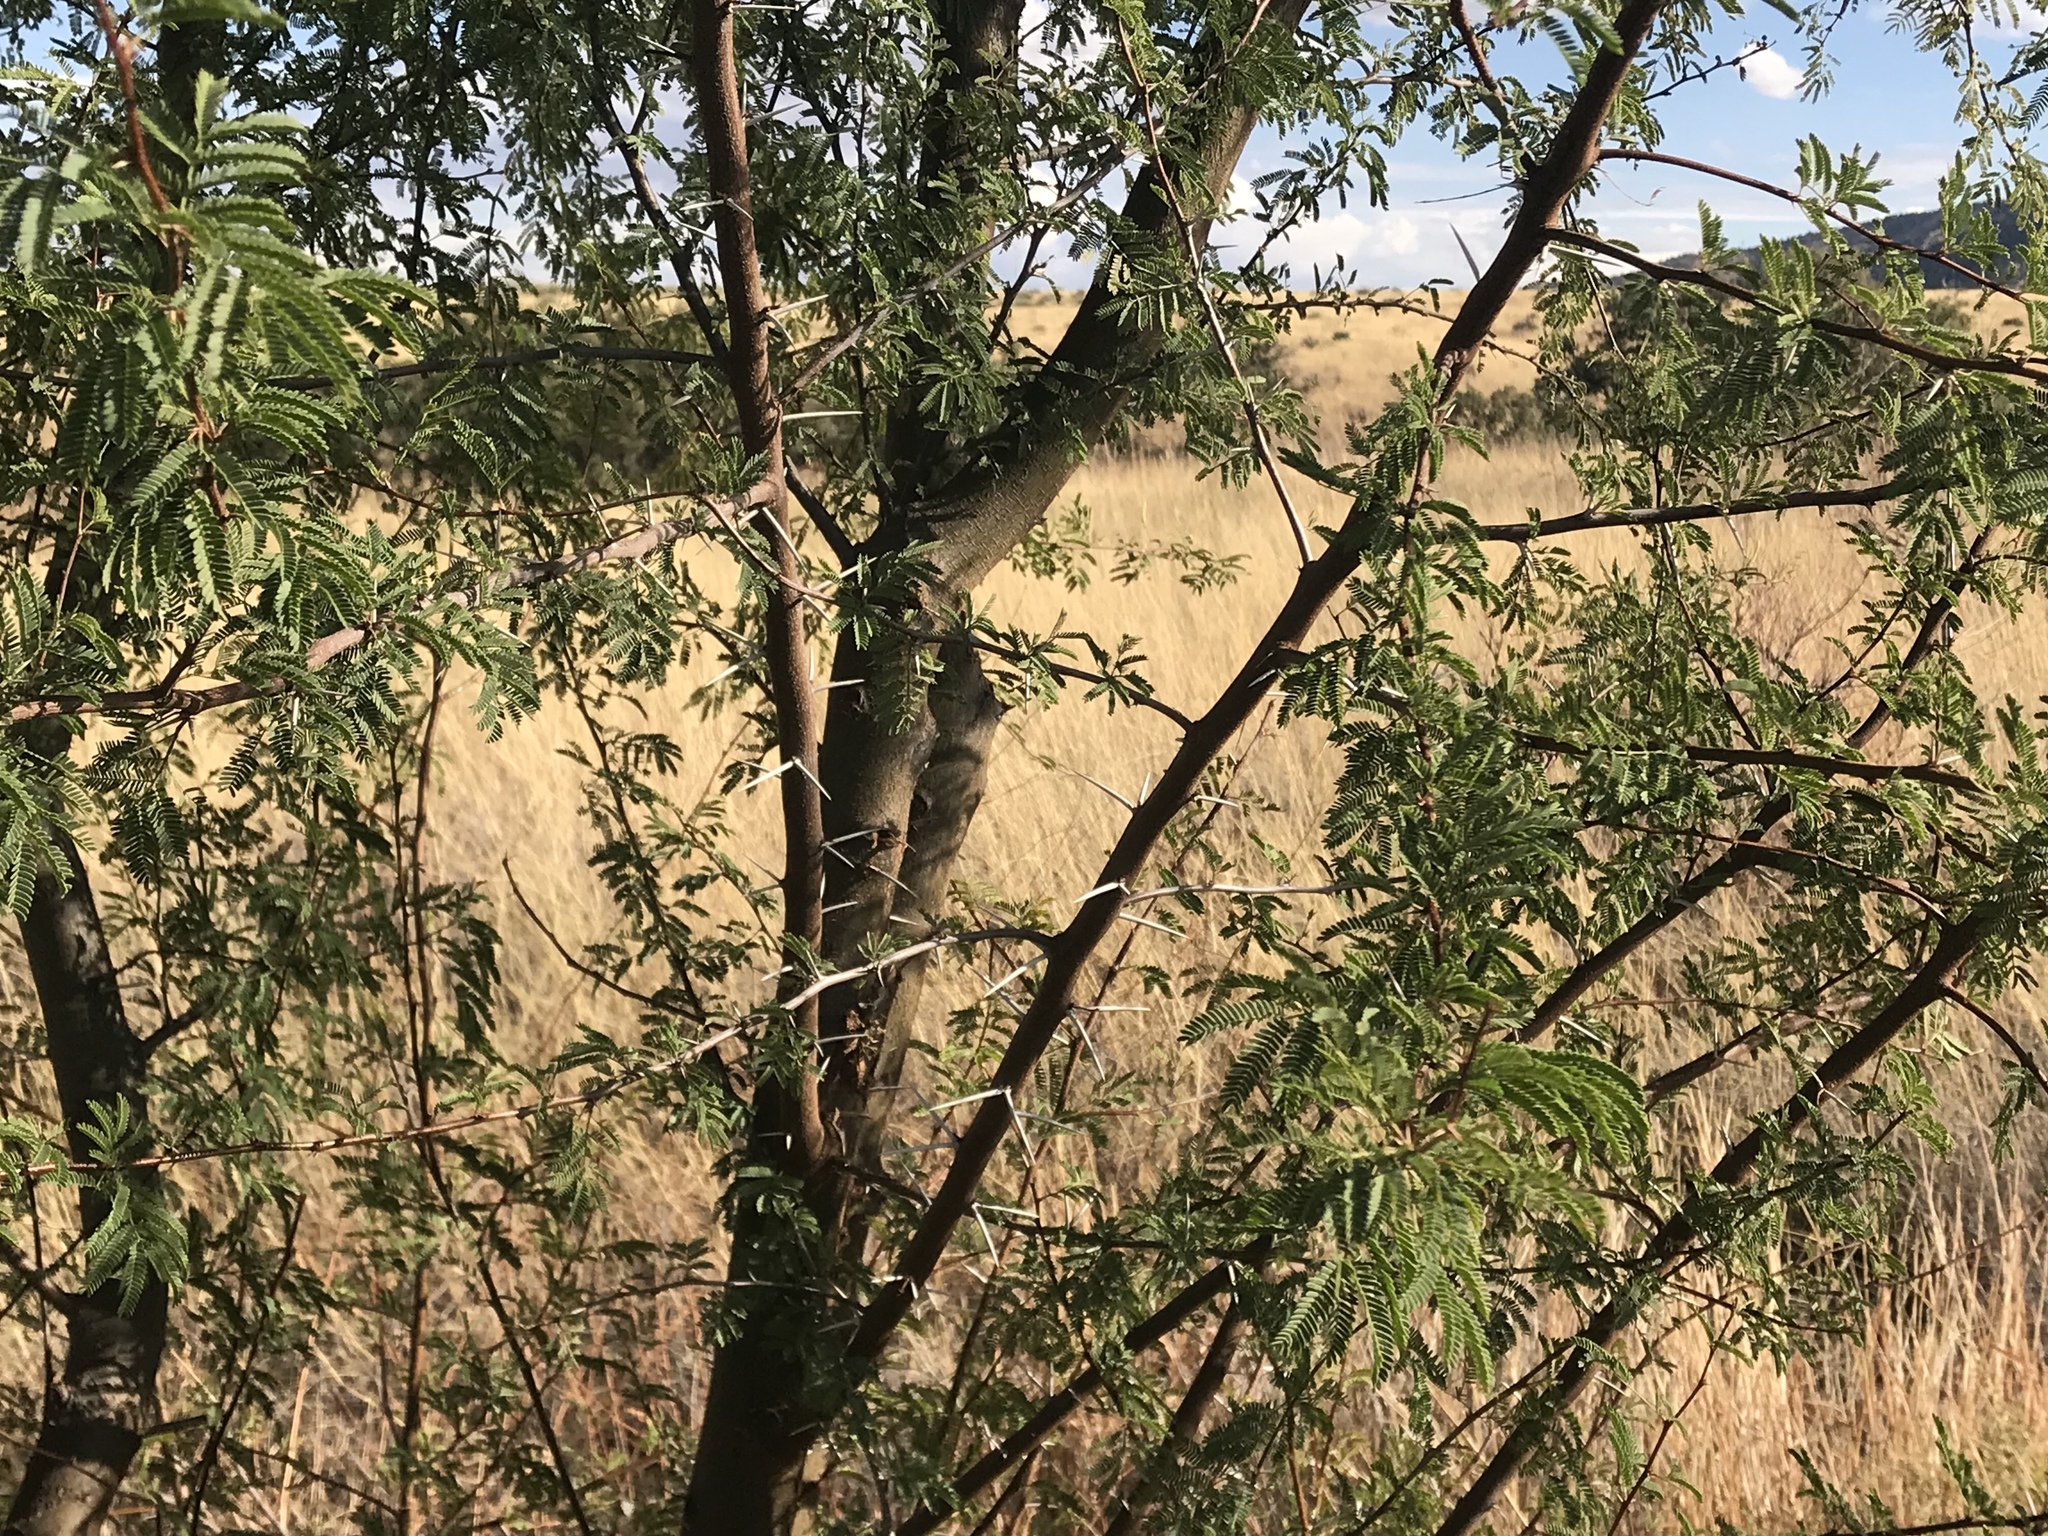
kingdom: Plantae
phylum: Tracheophyta
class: Magnoliopsida
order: Fabales
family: Fabaceae
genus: Vachellia
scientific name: Vachellia constricta
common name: Mescat acacia
